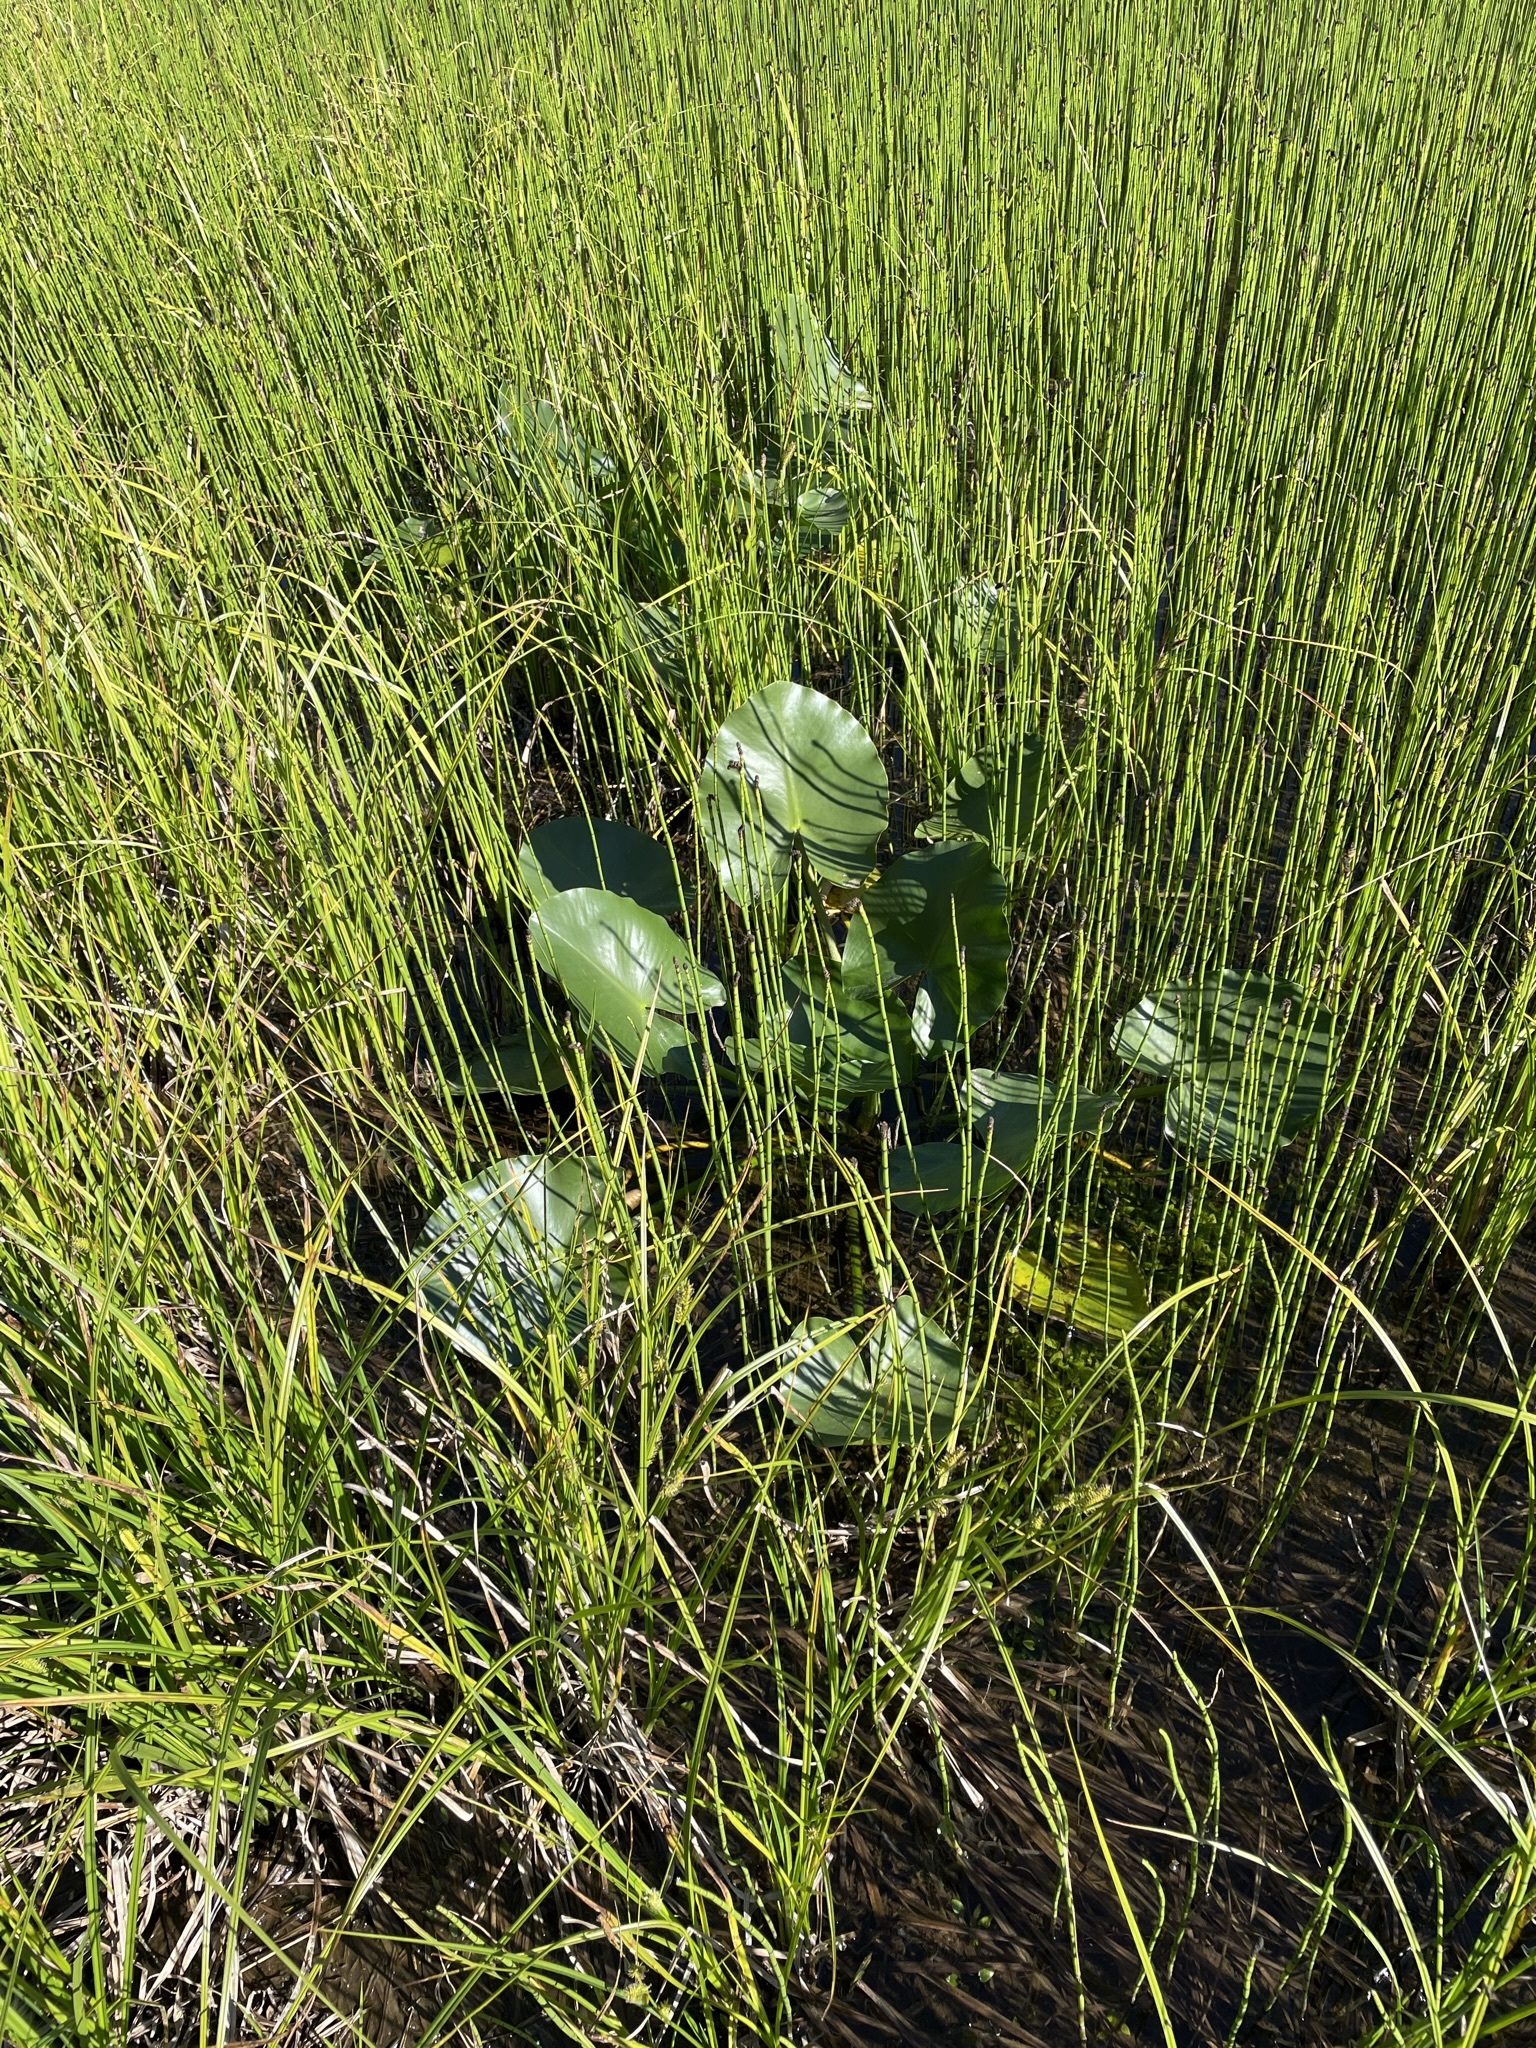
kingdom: Plantae
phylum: Tracheophyta
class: Magnoliopsida
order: Nymphaeales
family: Nymphaeaceae
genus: Nuphar
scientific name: Nuphar polysepala
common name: Rocky mountain cow-lily
